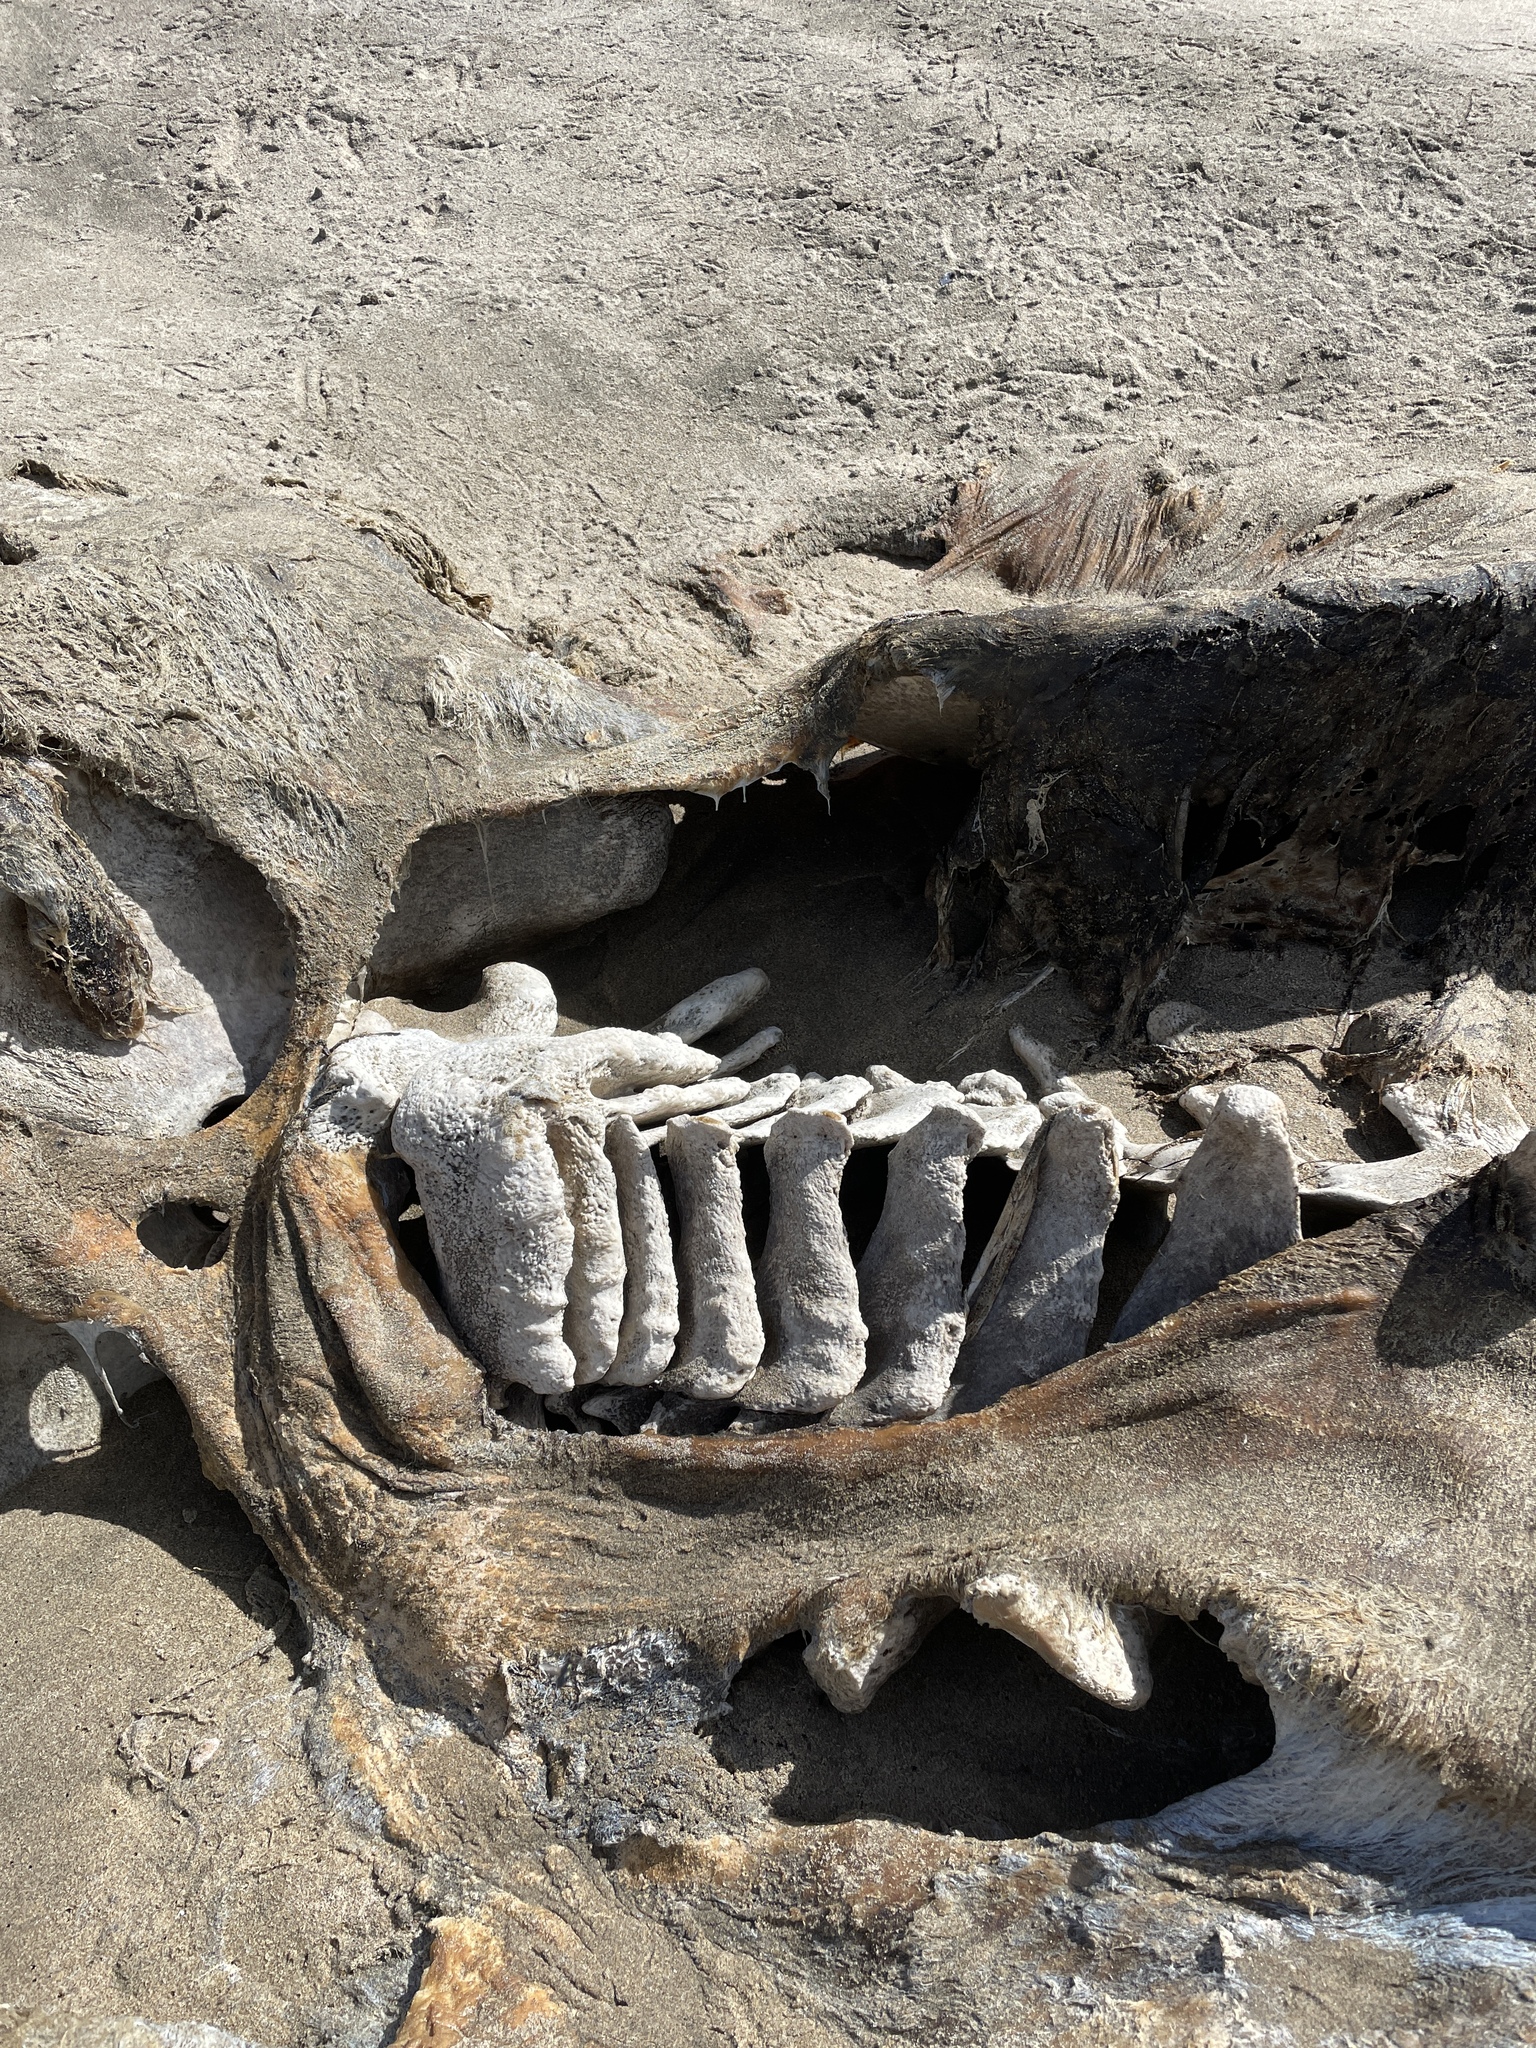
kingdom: Animalia
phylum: Chordata
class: Mammalia
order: Cetacea
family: Eschrichtiidae
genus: Eschrichtius
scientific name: Eschrichtius robustus
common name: Gray whale
